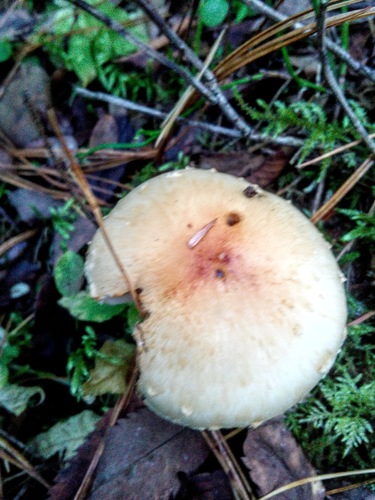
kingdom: Fungi
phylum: Basidiomycota
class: Agaricomycetes
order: Agaricales
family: Strophariaceae
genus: Hypholoma
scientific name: Hypholoma
